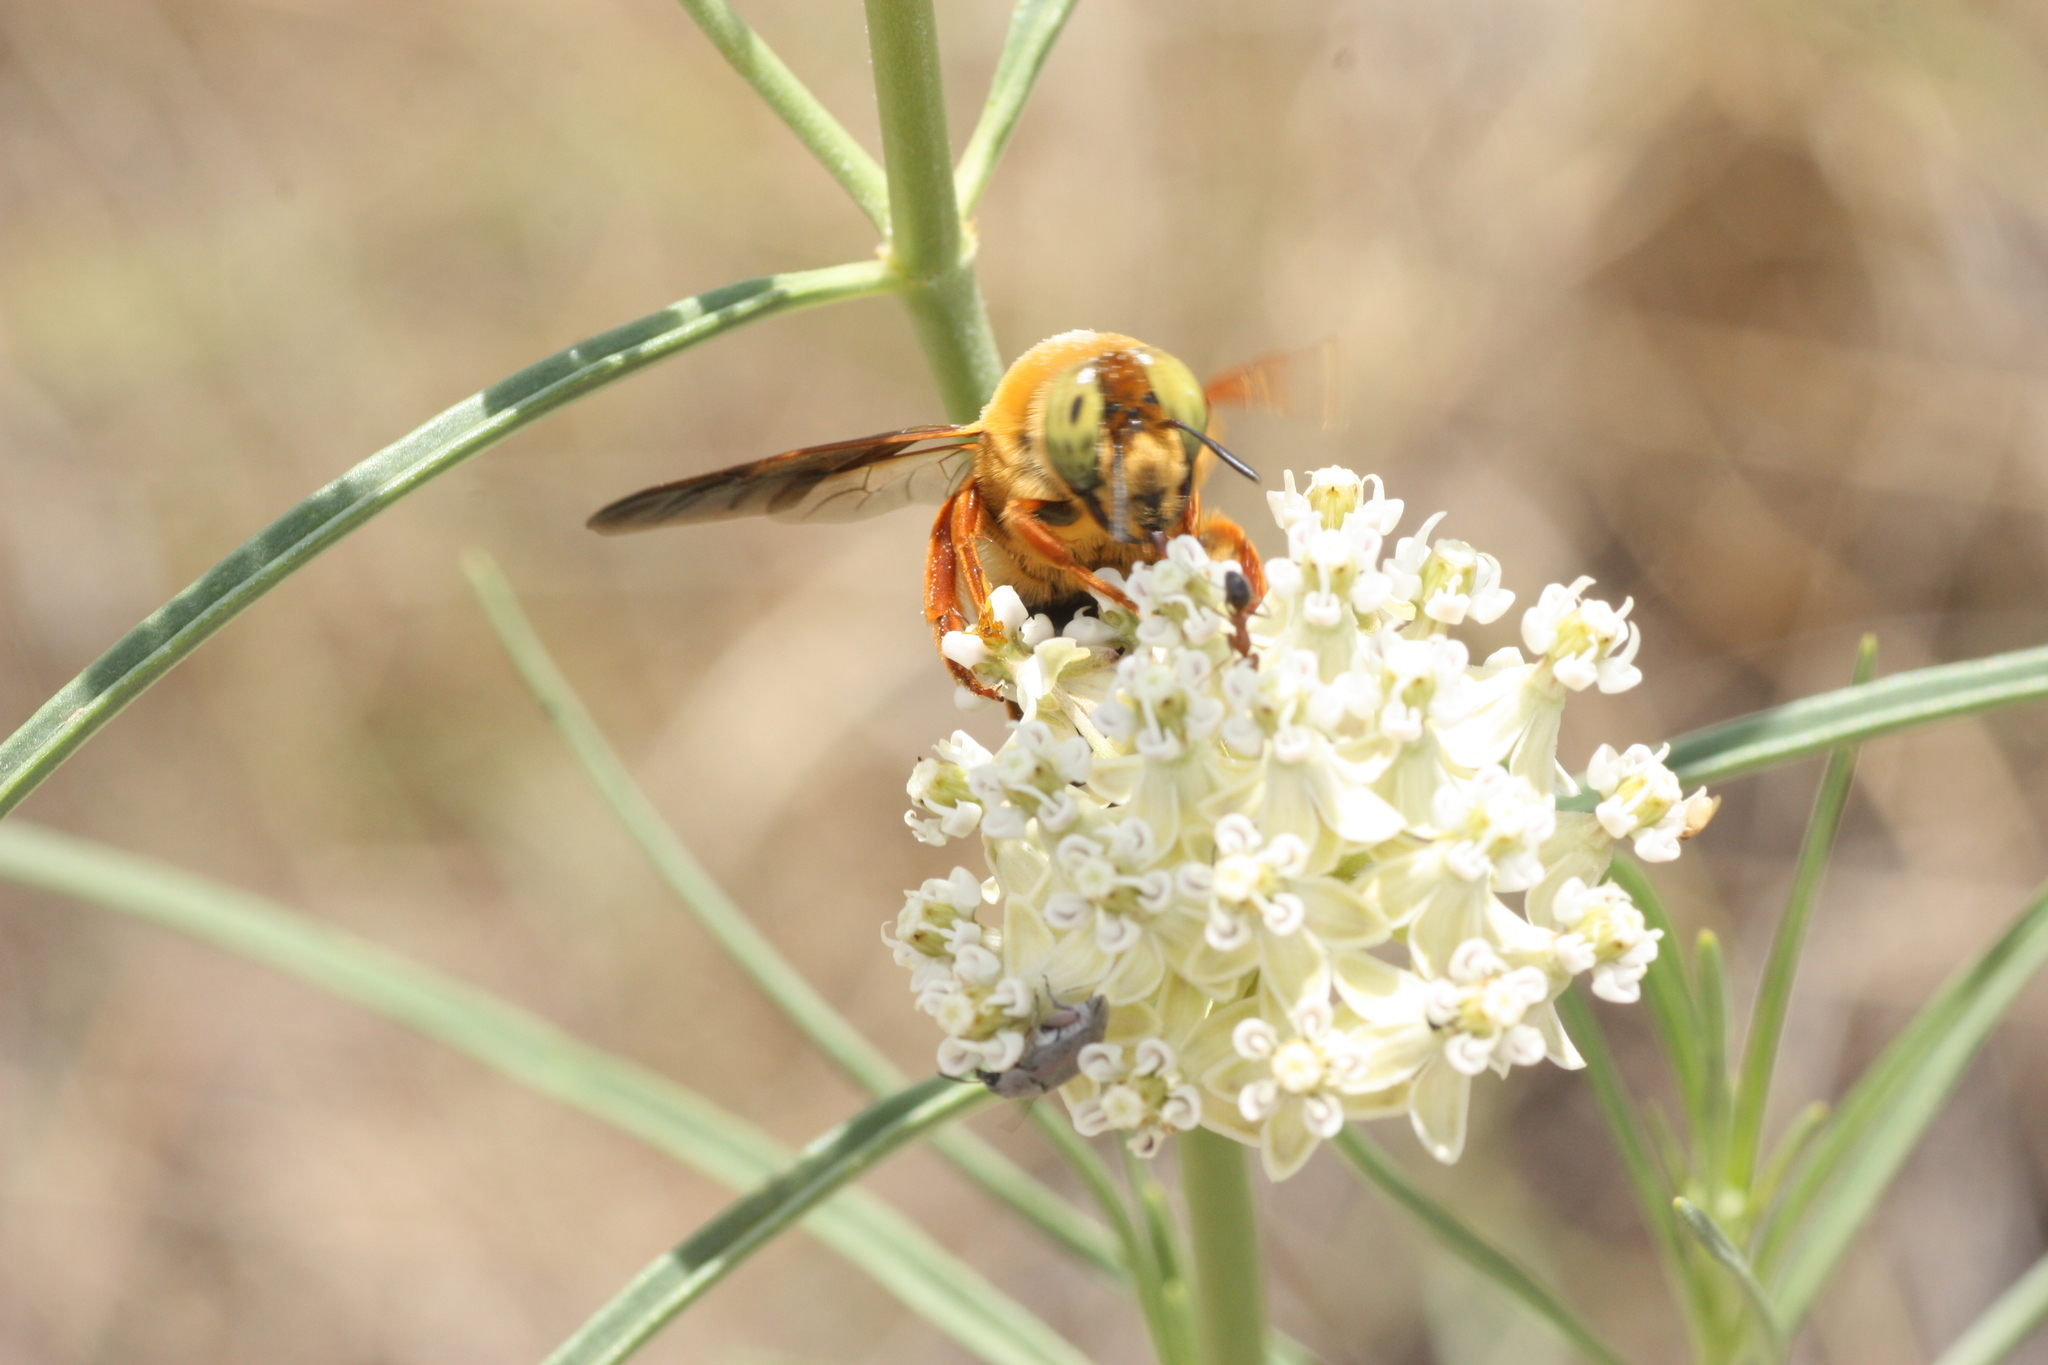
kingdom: Animalia
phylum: Arthropoda
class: Insecta
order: Hymenoptera
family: Andrenidae
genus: Protoxaea
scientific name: Protoxaea gloriosa
